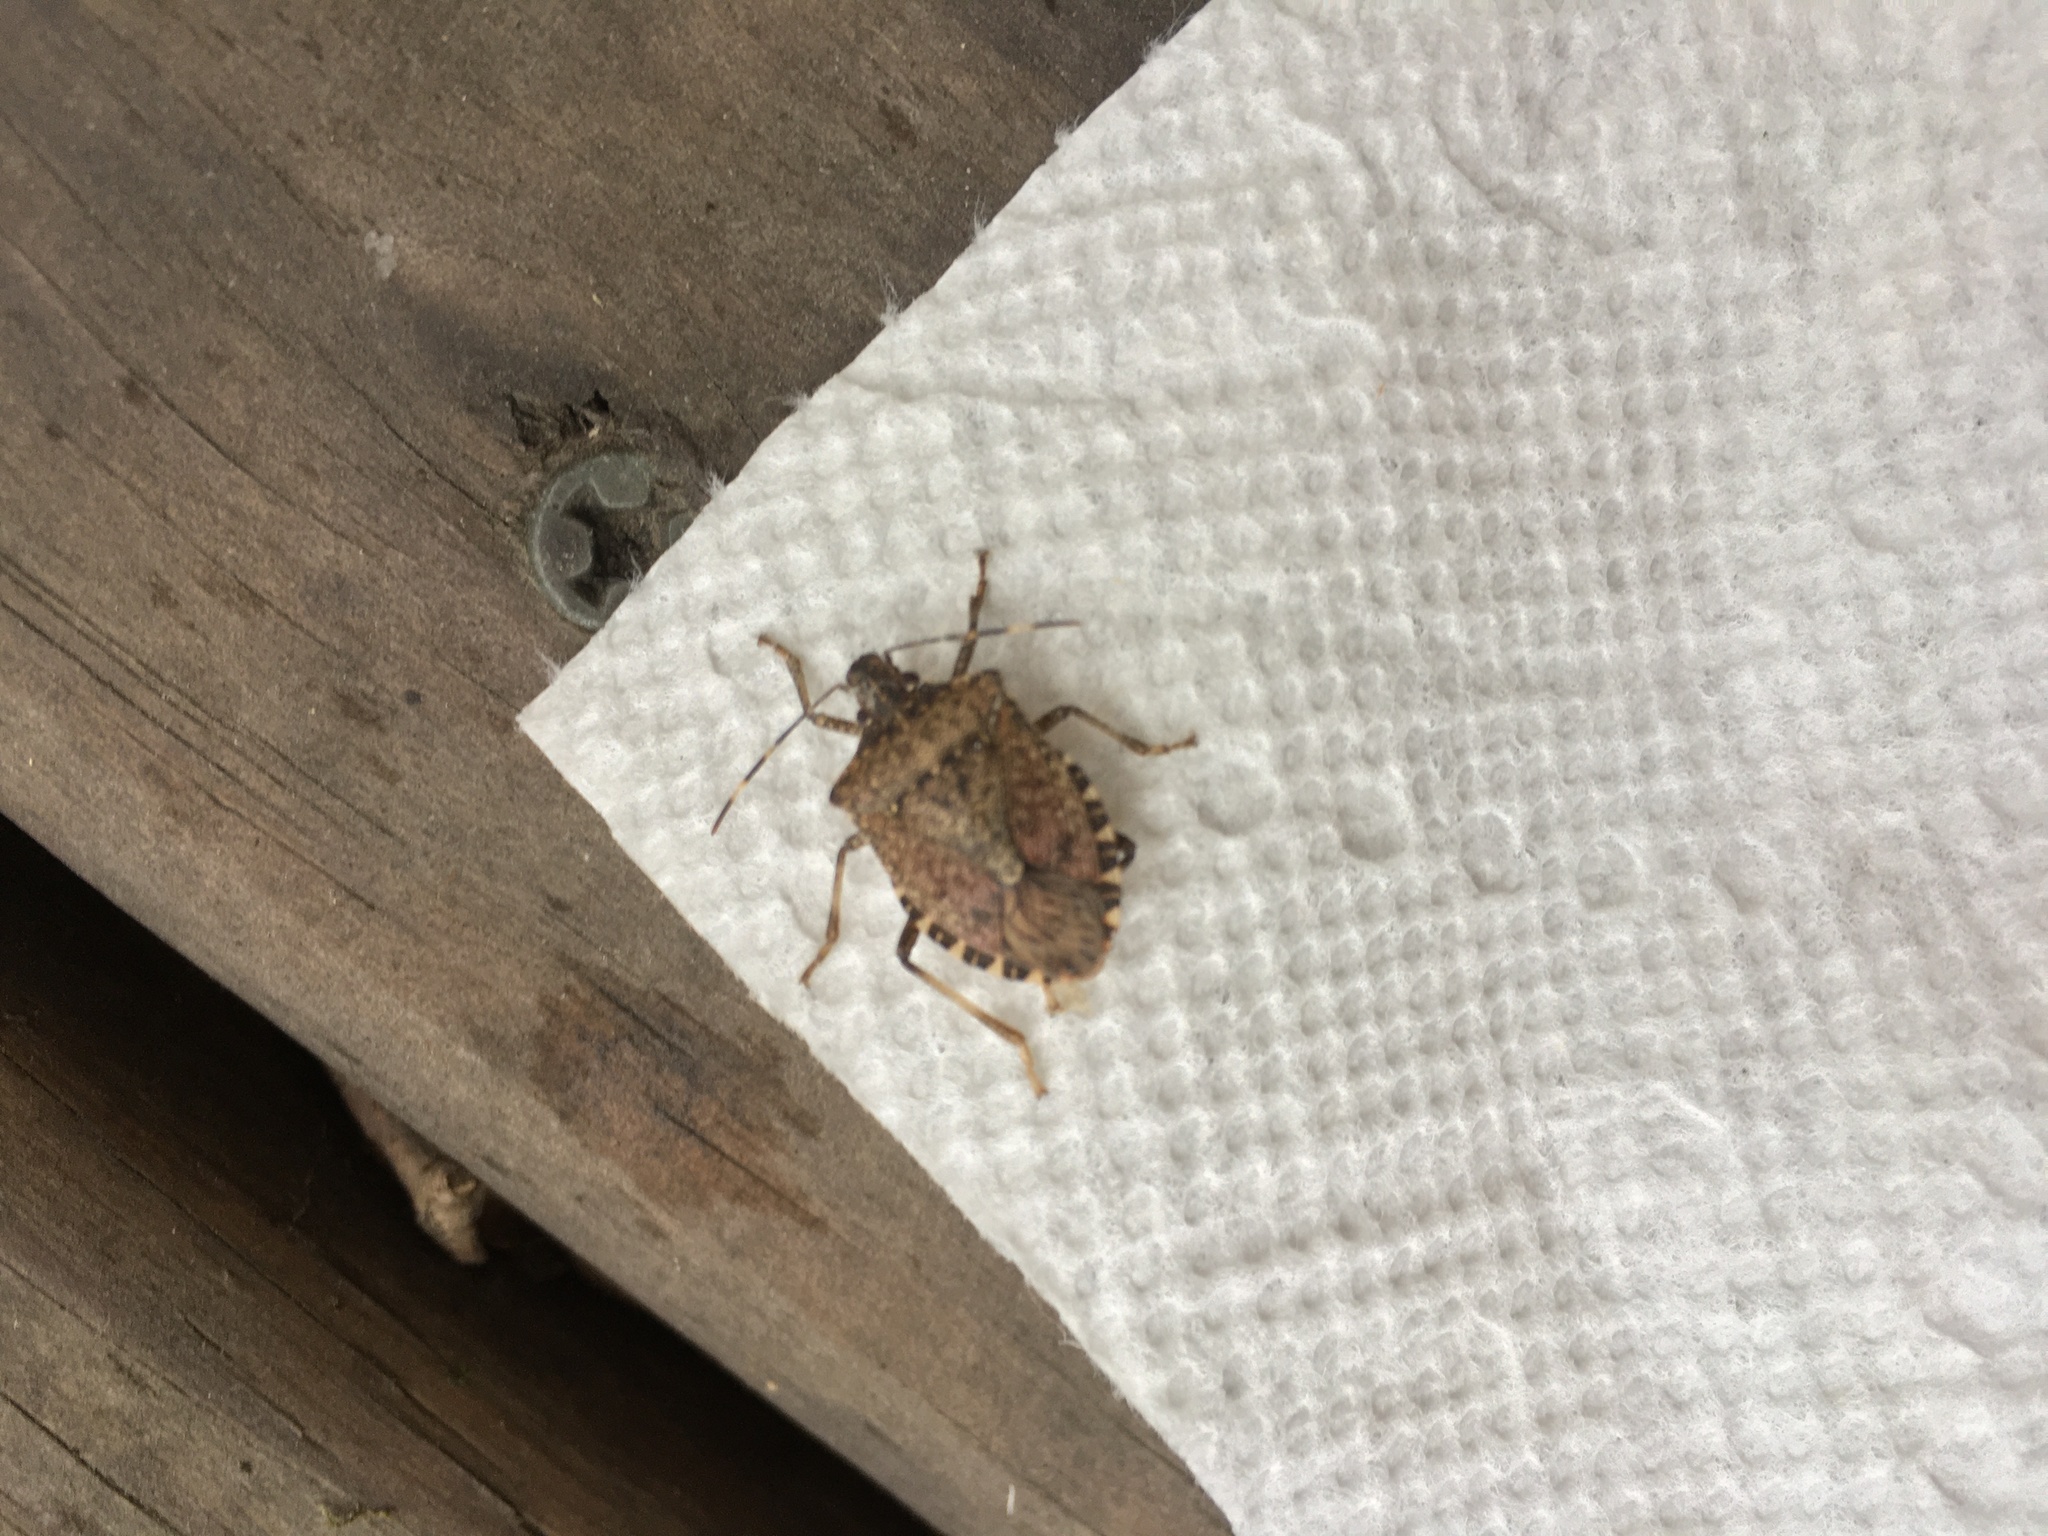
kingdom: Animalia
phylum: Arthropoda
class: Insecta
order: Hemiptera
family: Pentatomidae
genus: Halyomorpha
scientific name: Halyomorpha halys
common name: Brown marmorated stink bug
